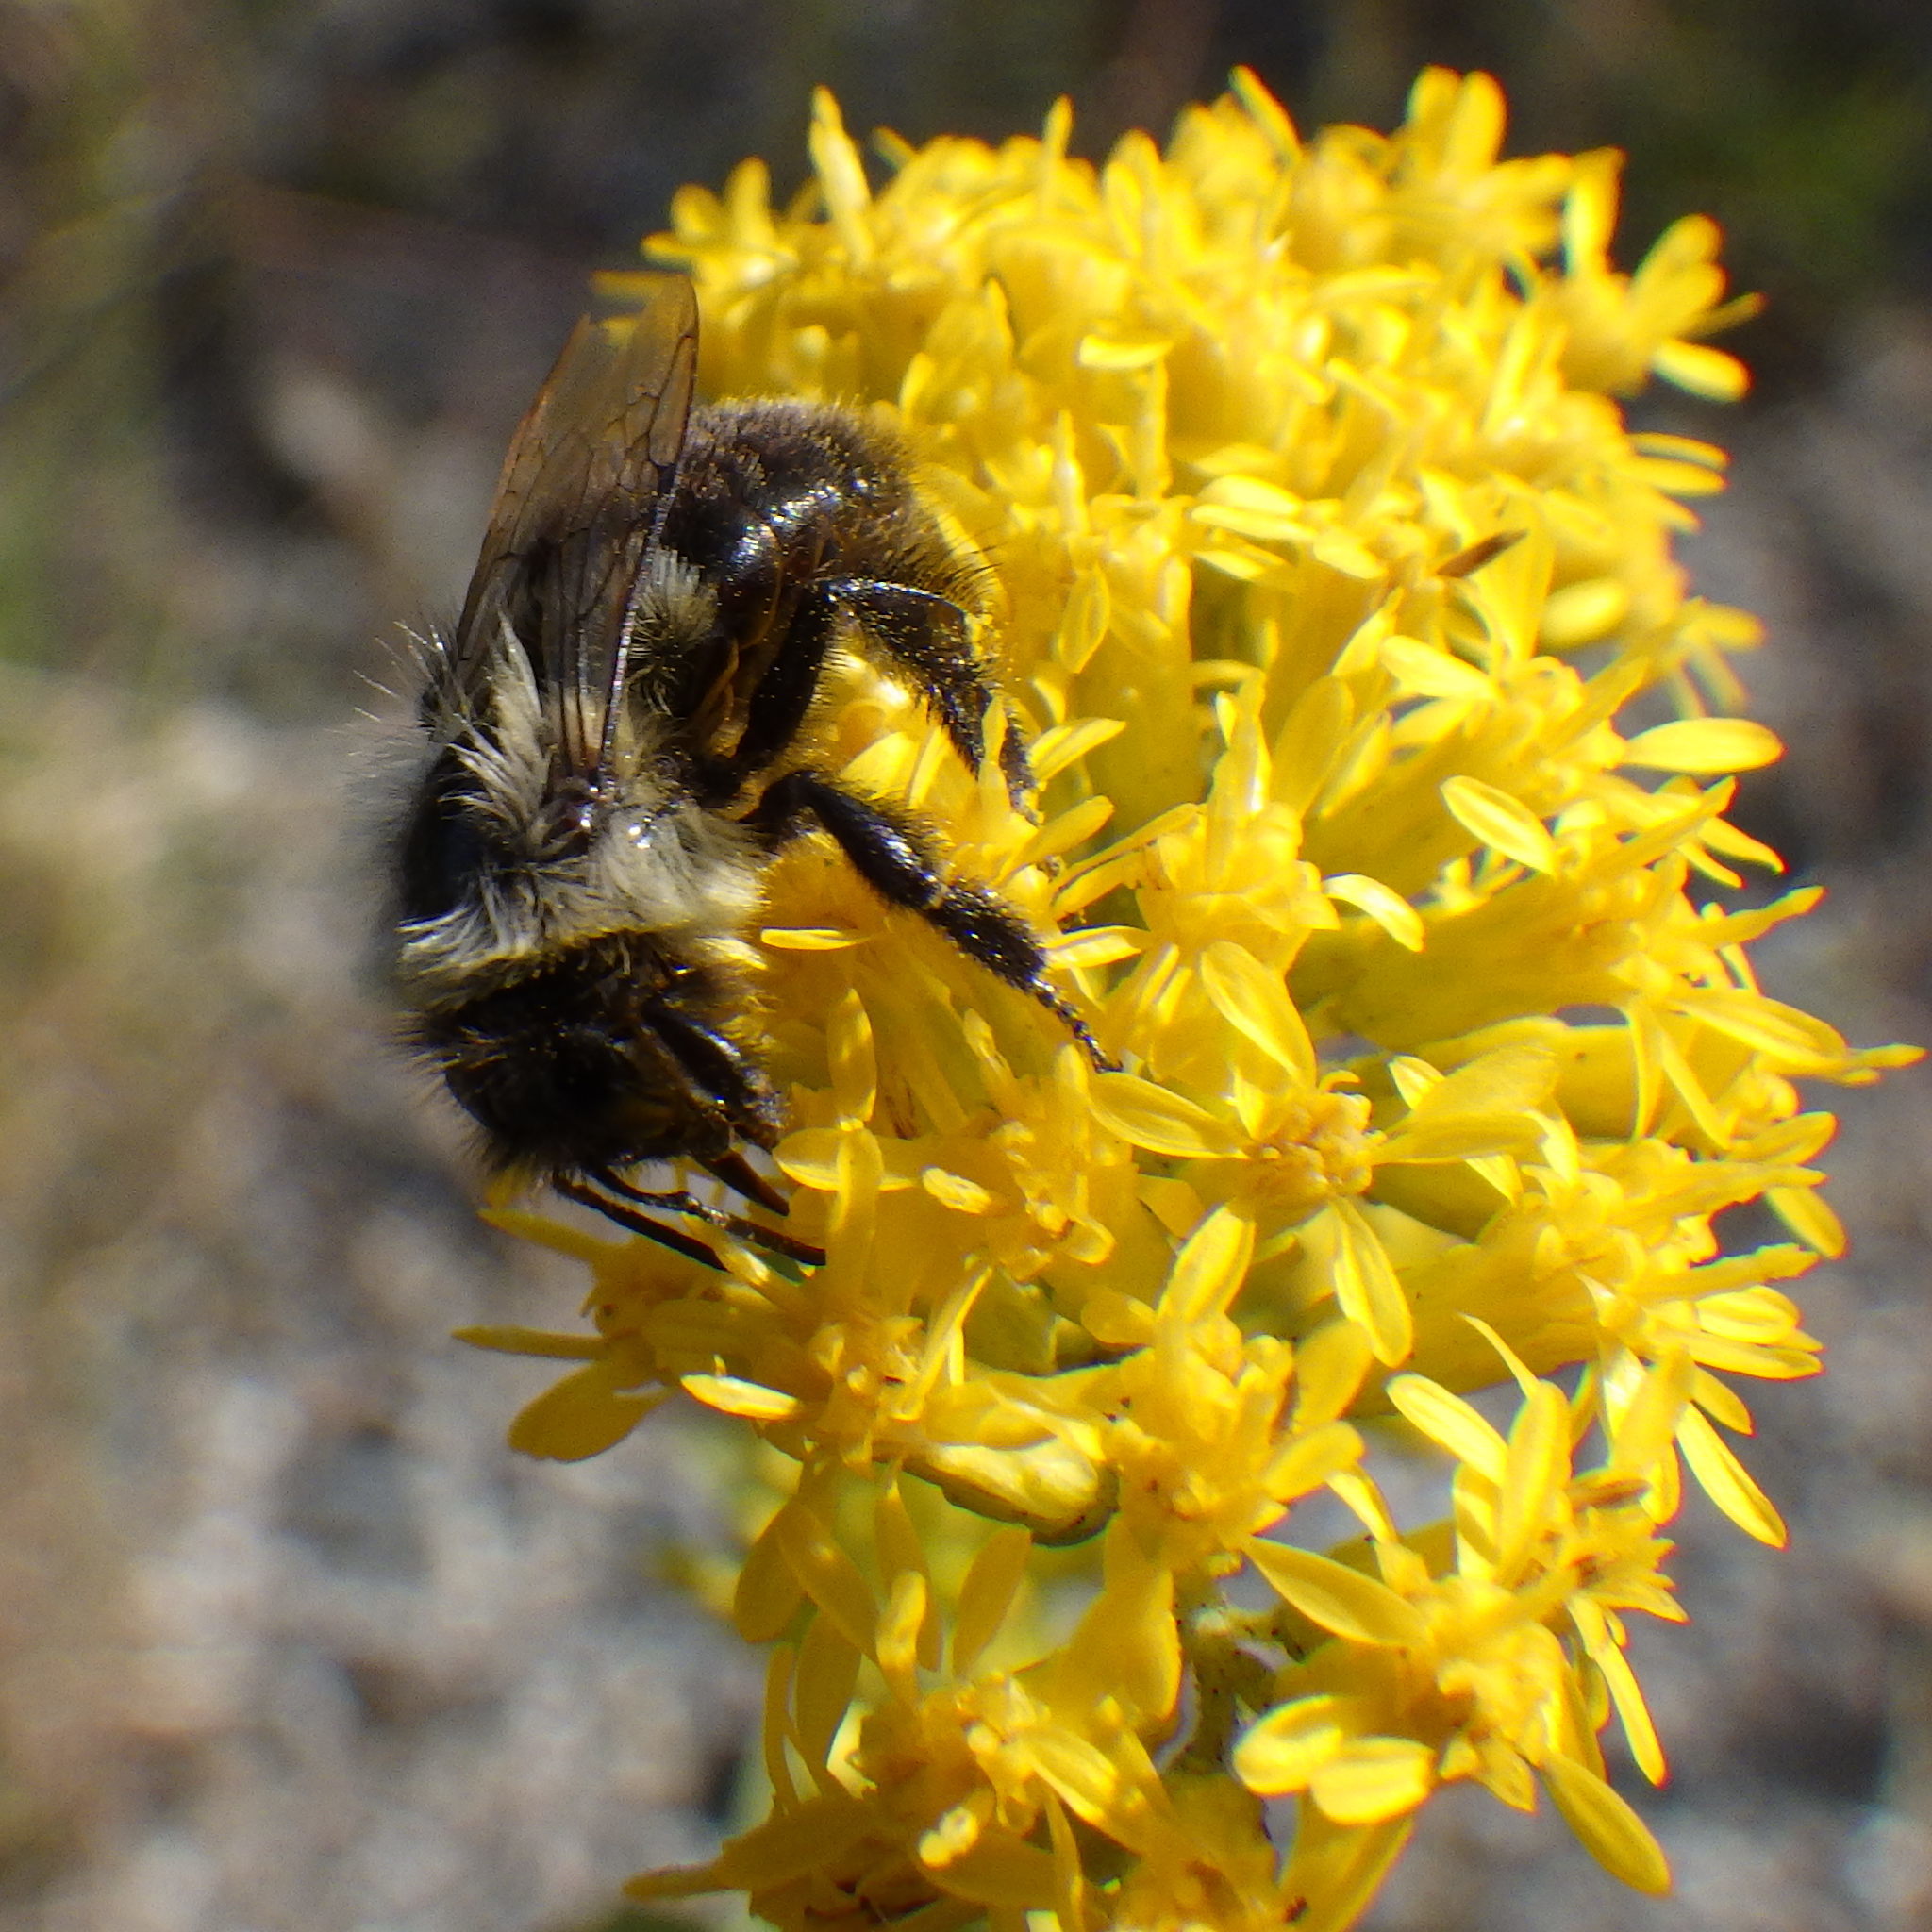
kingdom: Animalia
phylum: Arthropoda
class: Insecta
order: Hymenoptera
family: Apidae
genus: Bombus
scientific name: Bombus impatiens
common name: Common eastern bumble bee
